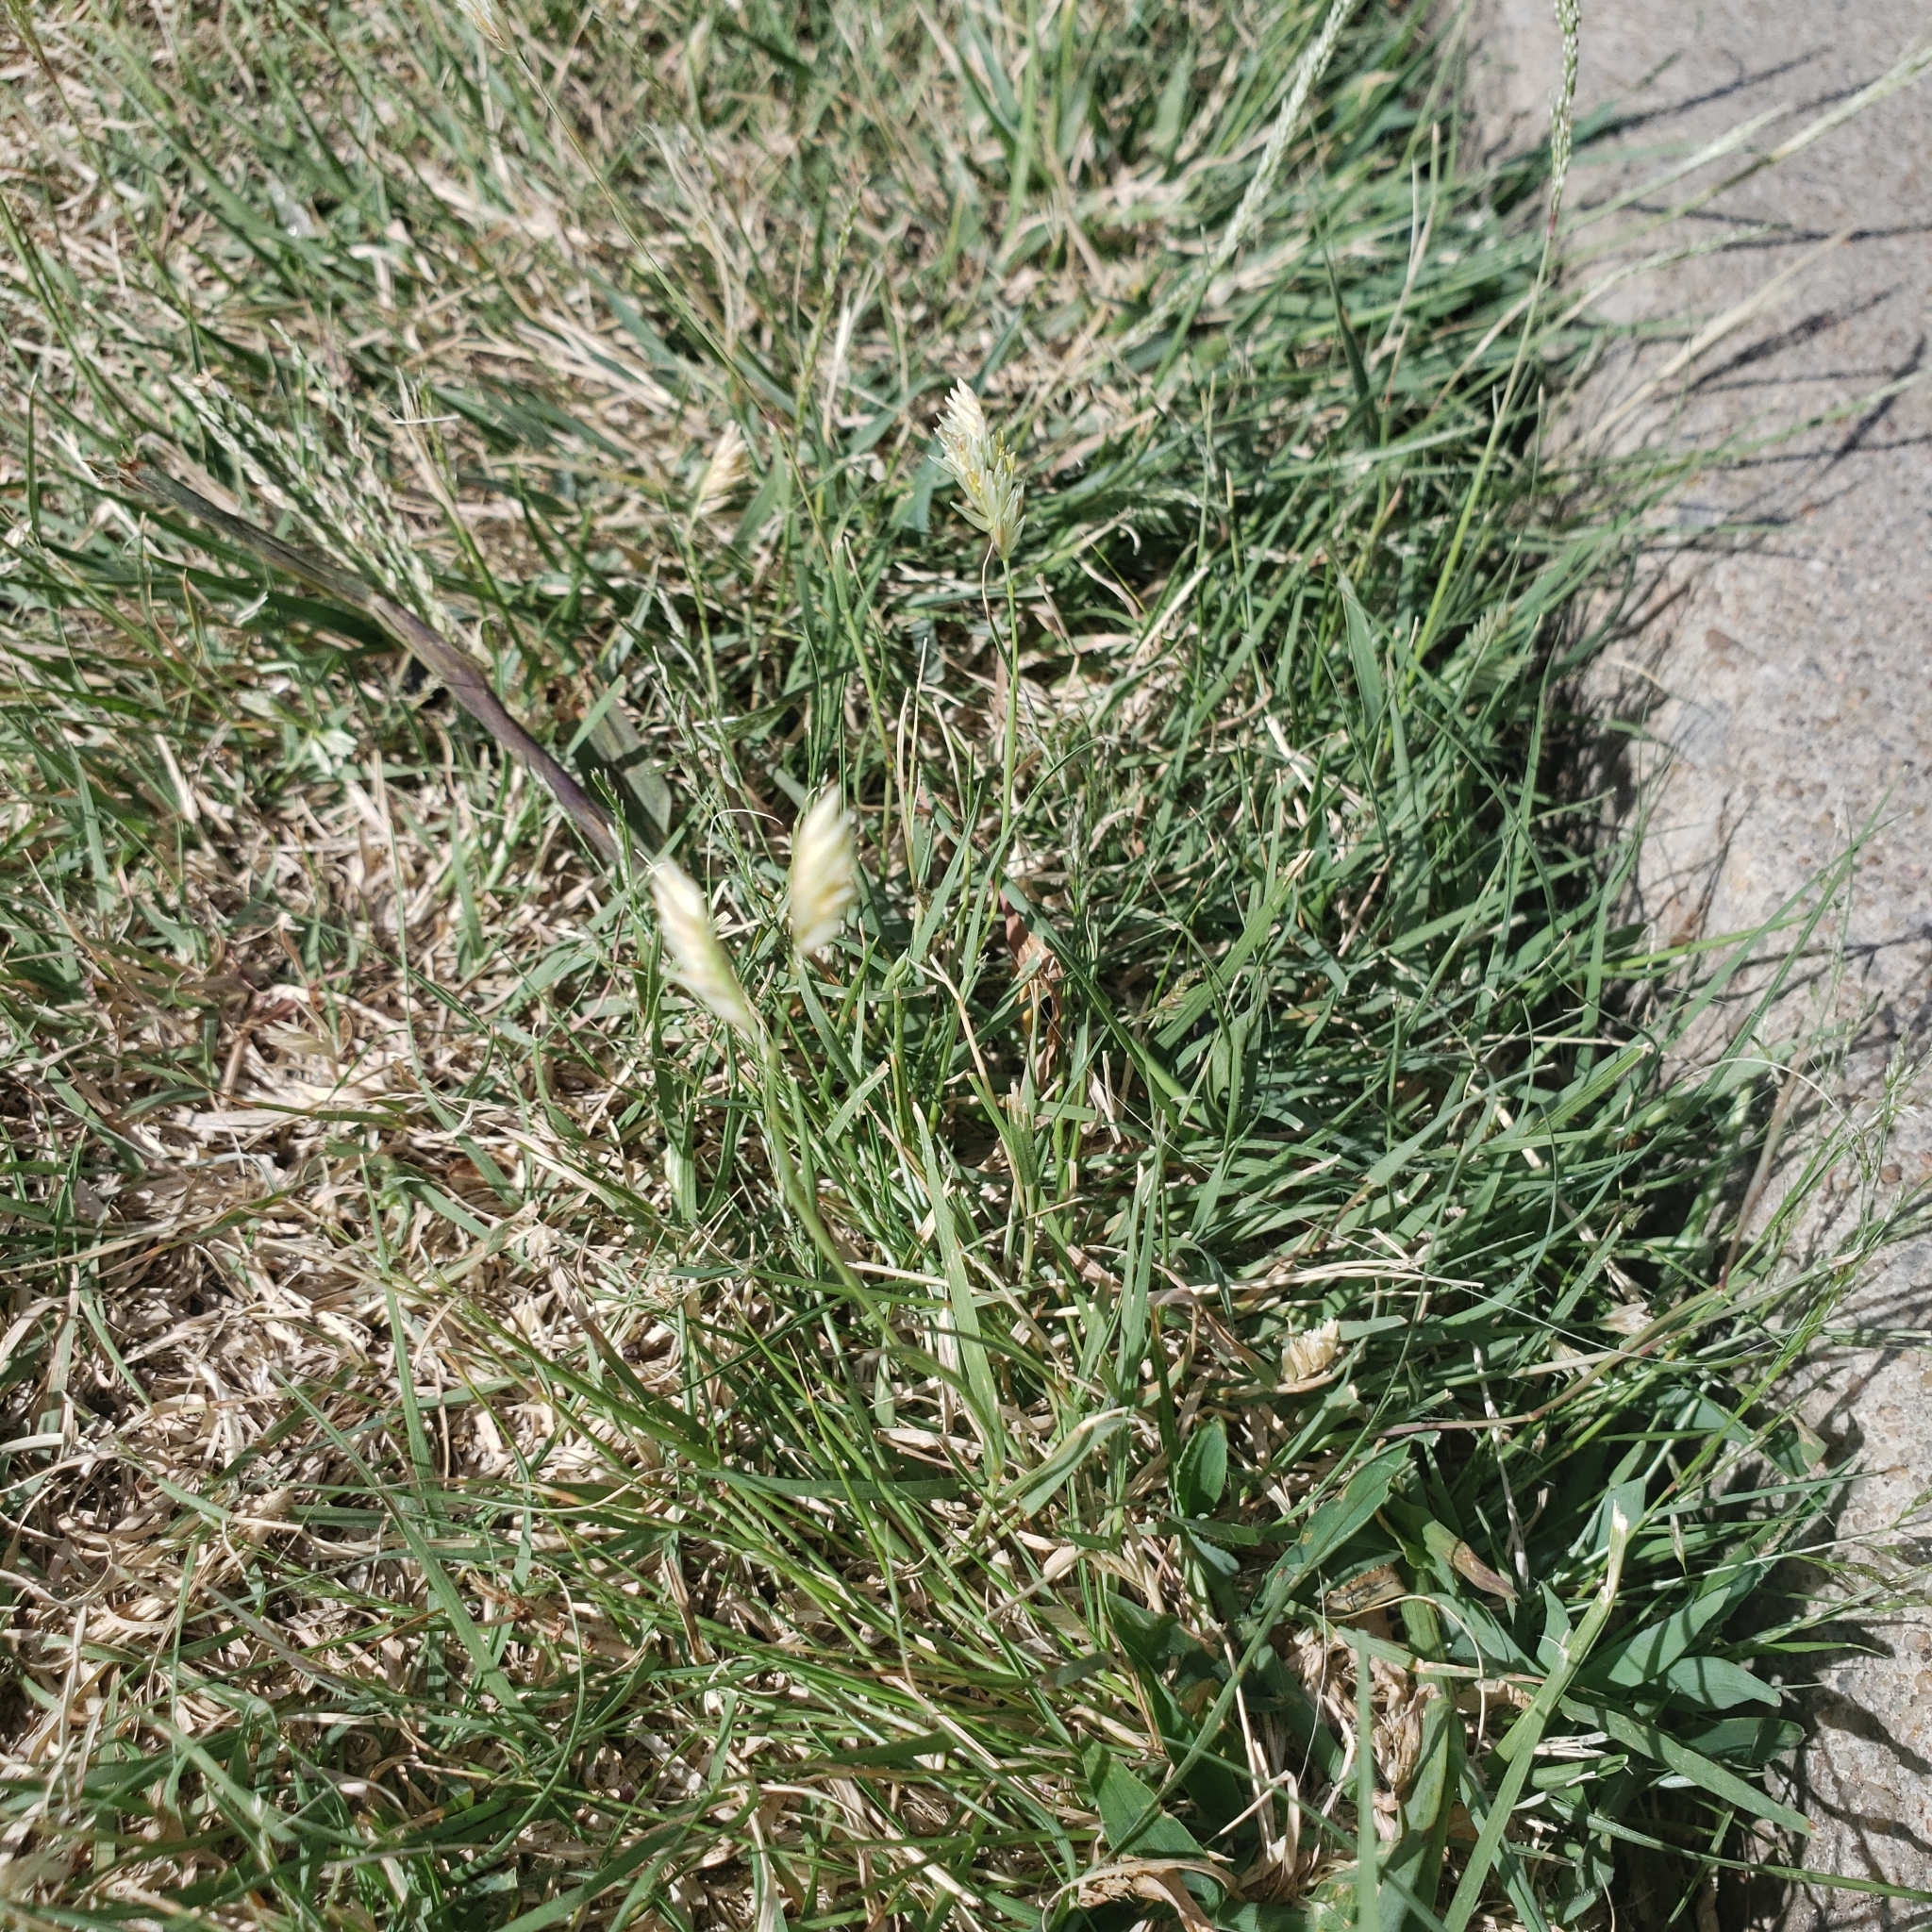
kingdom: Plantae
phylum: Tracheophyta
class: Liliopsida
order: Poales
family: Poaceae
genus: Bouteloua
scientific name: Bouteloua dactyloides
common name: Buffalo grass
